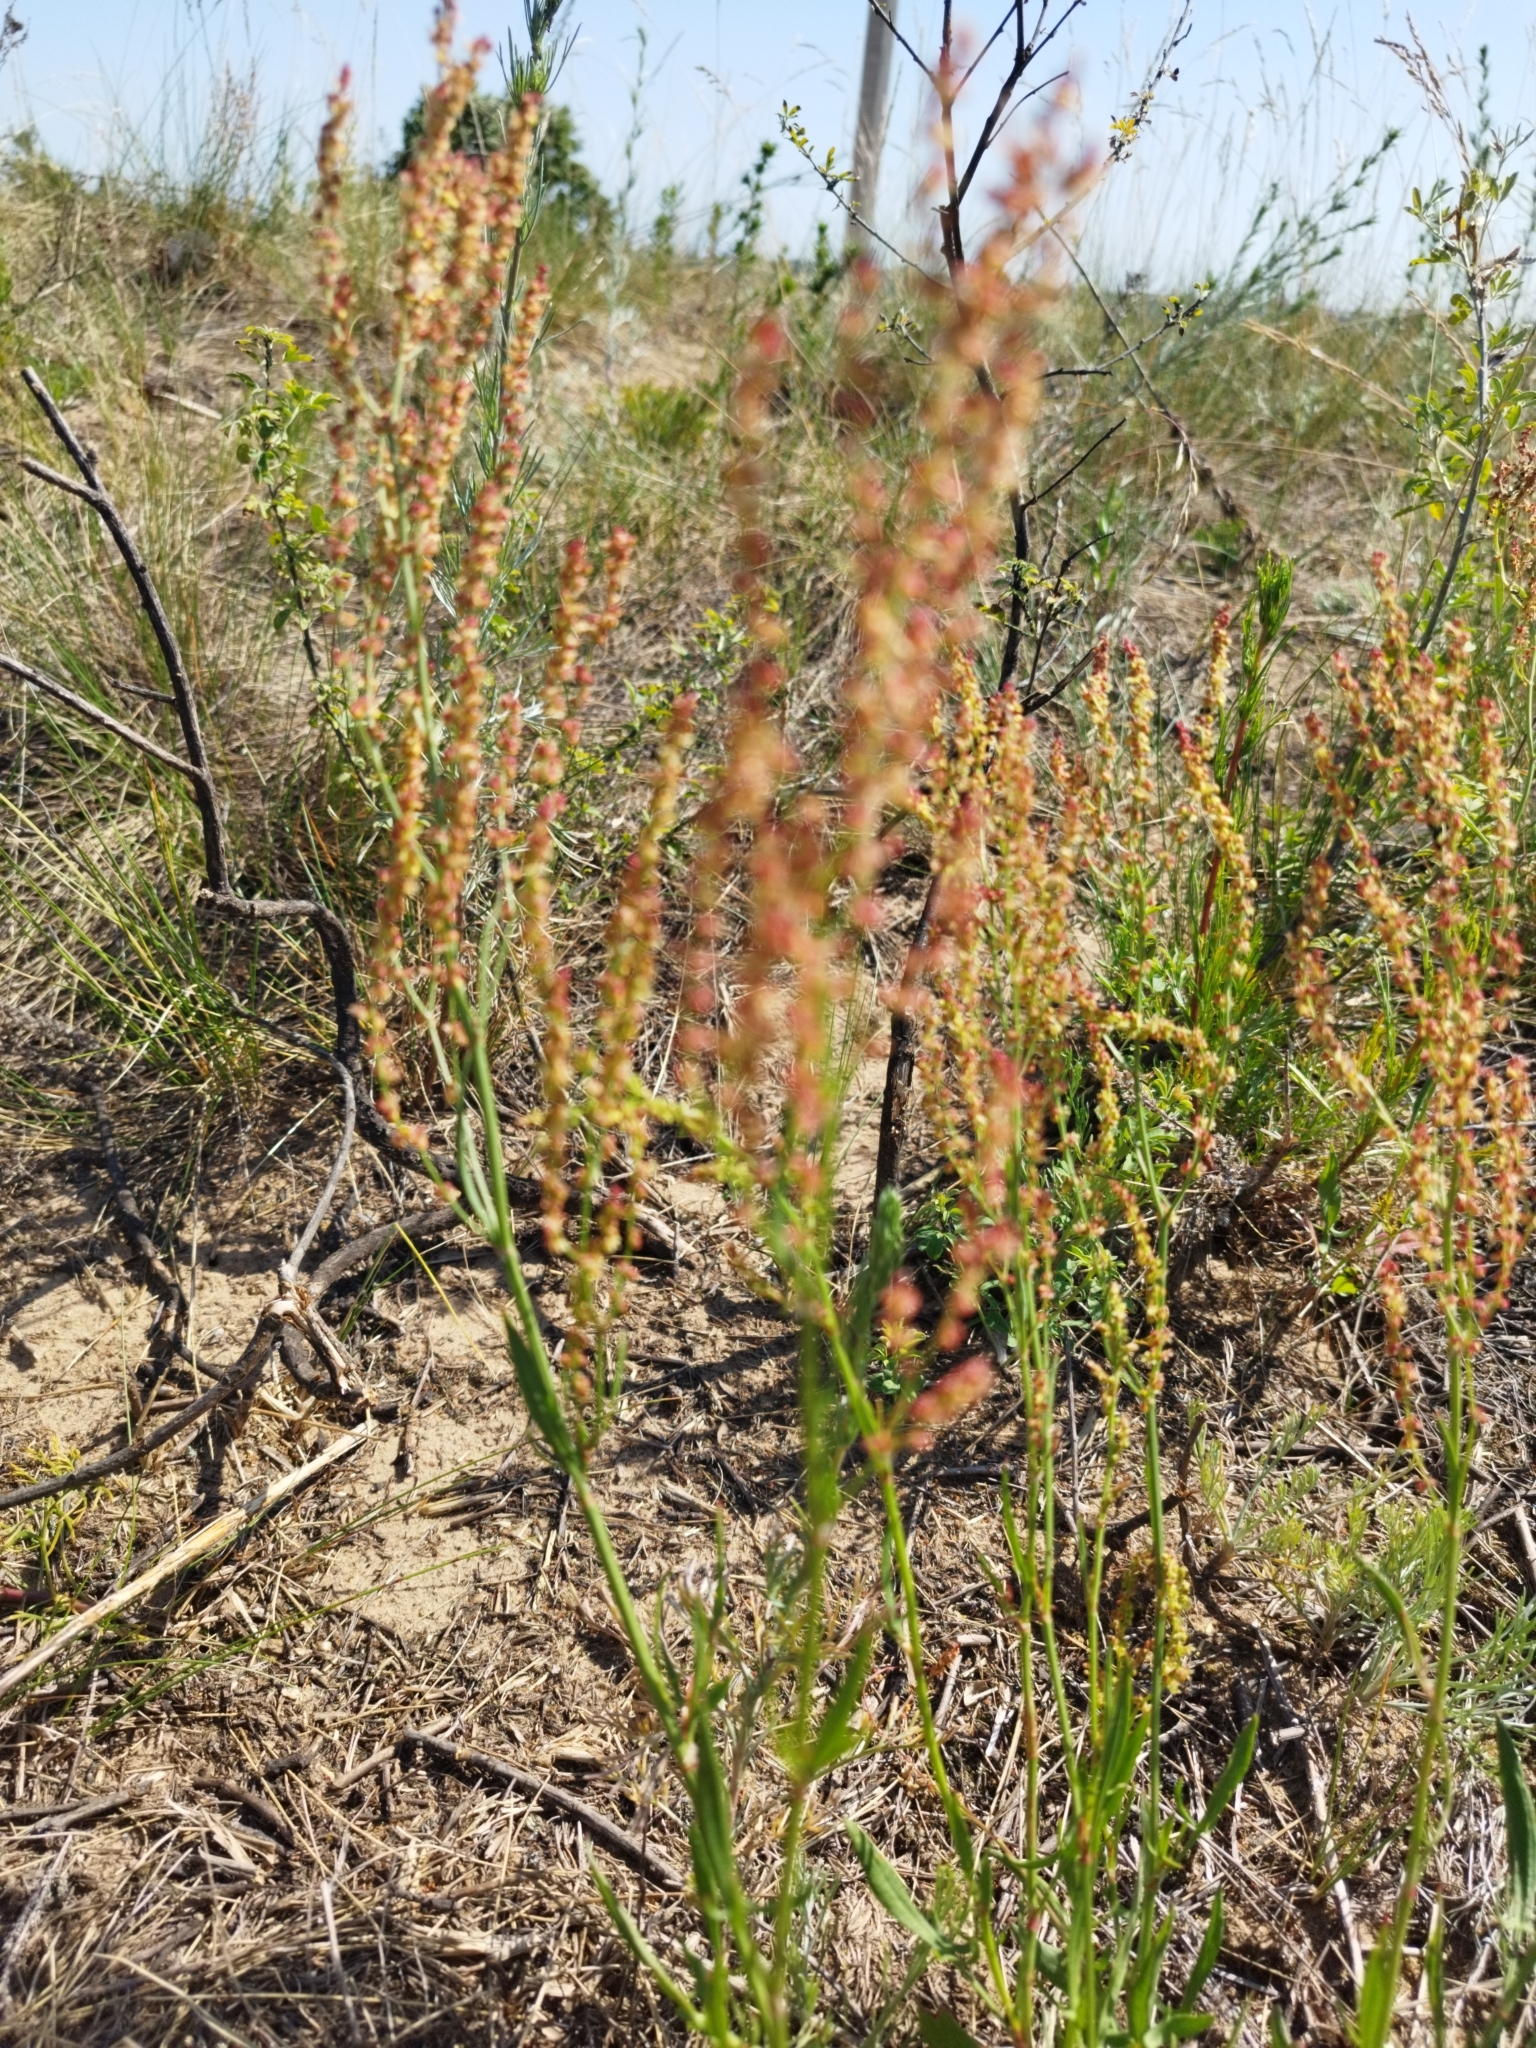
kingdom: Plantae
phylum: Tracheophyta
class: Magnoliopsida
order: Caryophyllales
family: Polygonaceae
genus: Rumex
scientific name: Rumex acetosella
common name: Common sheep sorrel
